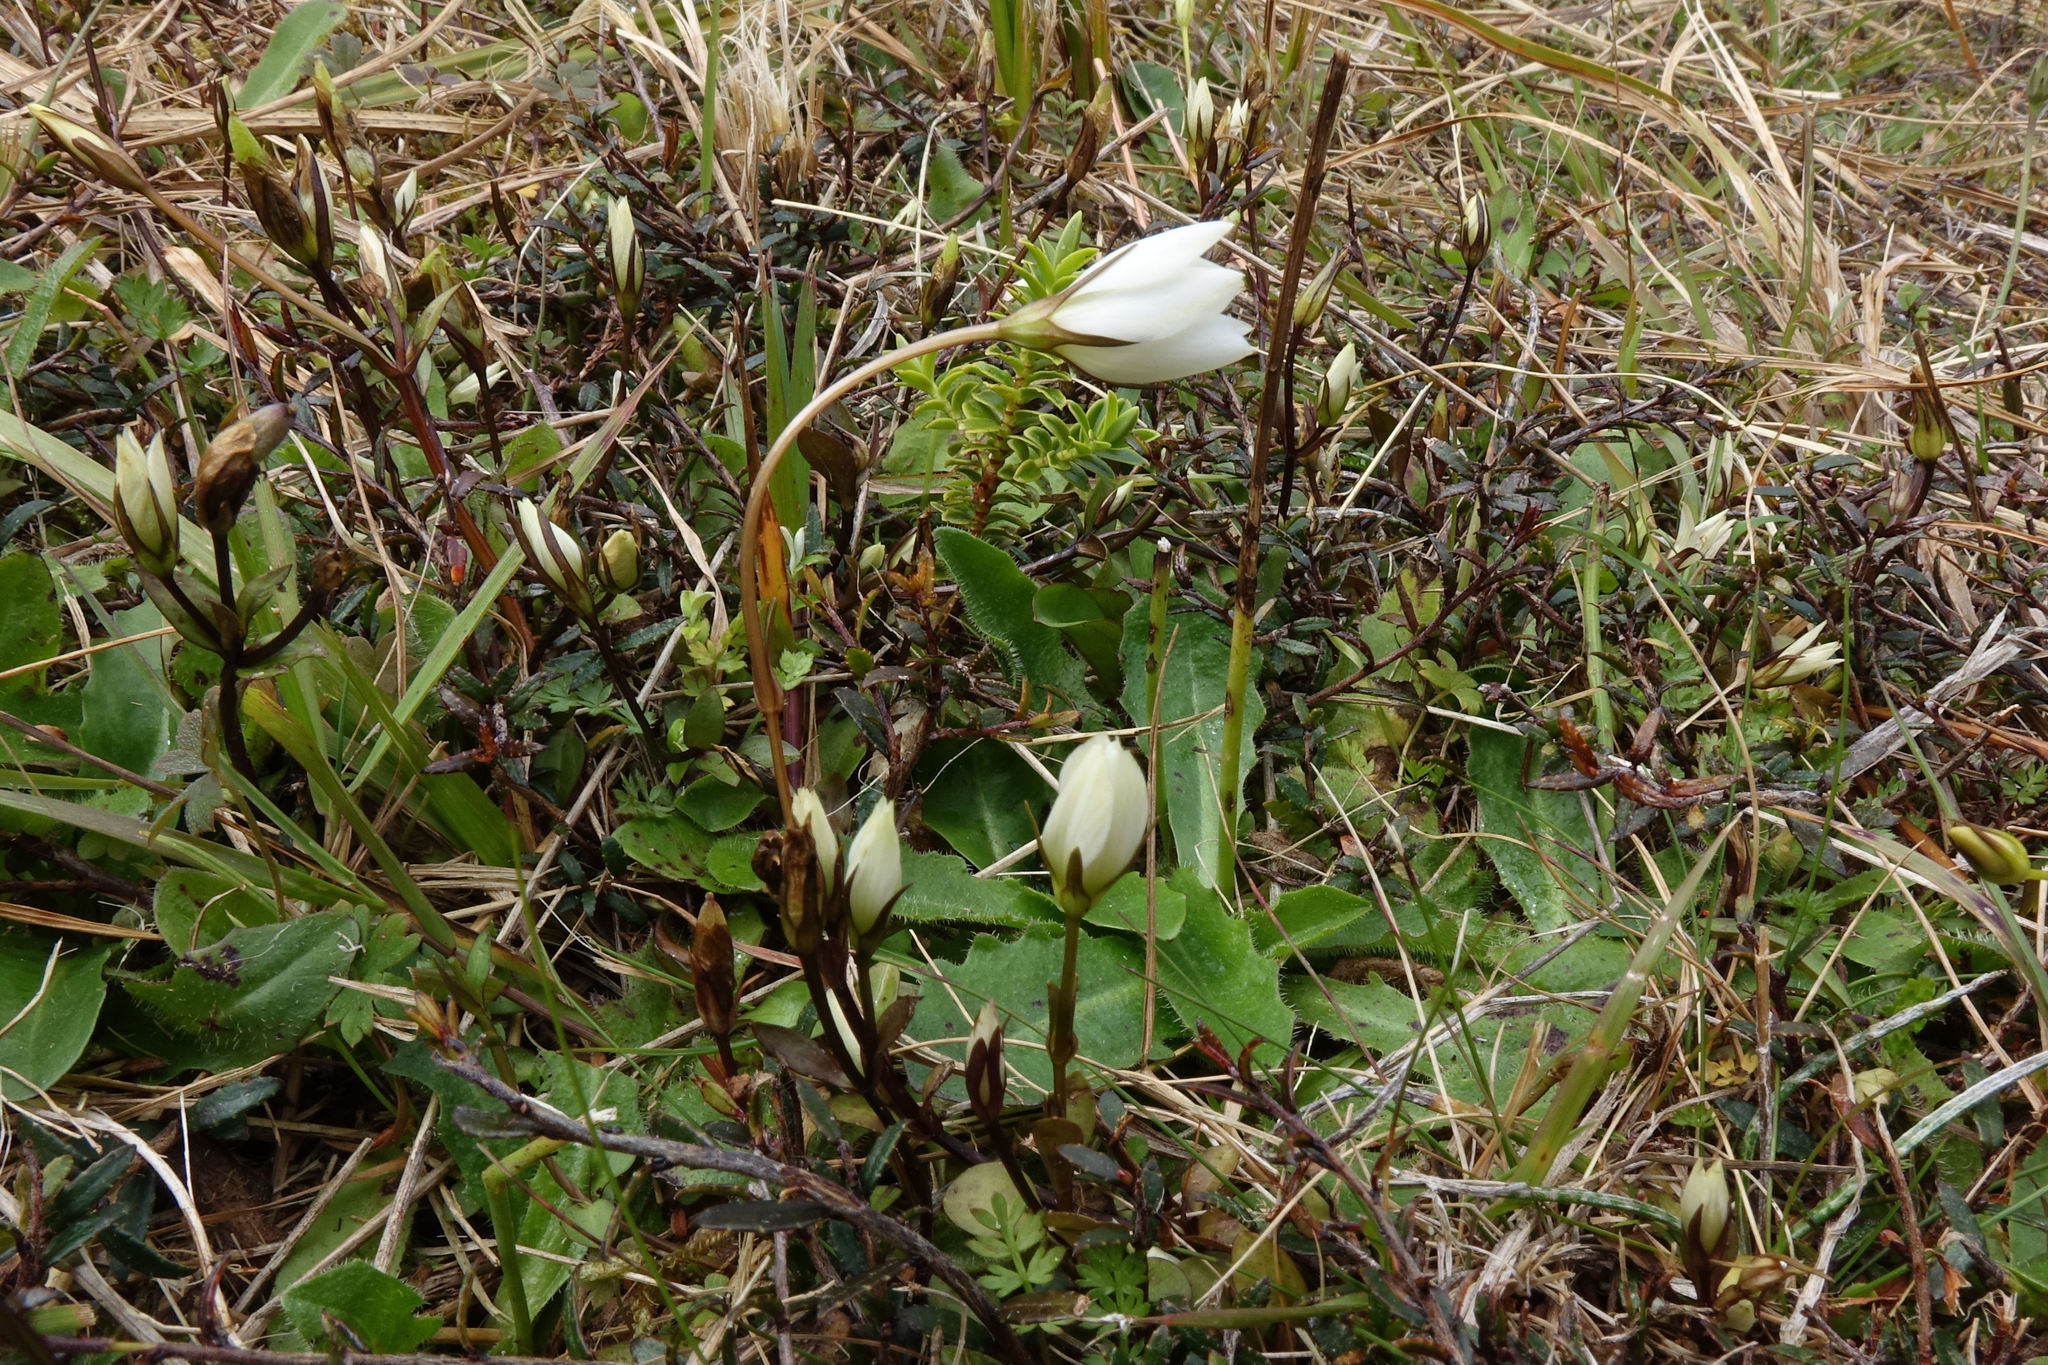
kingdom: Plantae
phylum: Tracheophyta
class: Magnoliopsida
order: Gentianales
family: Gentianaceae
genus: Gentianella
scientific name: Gentianella grisebachii
